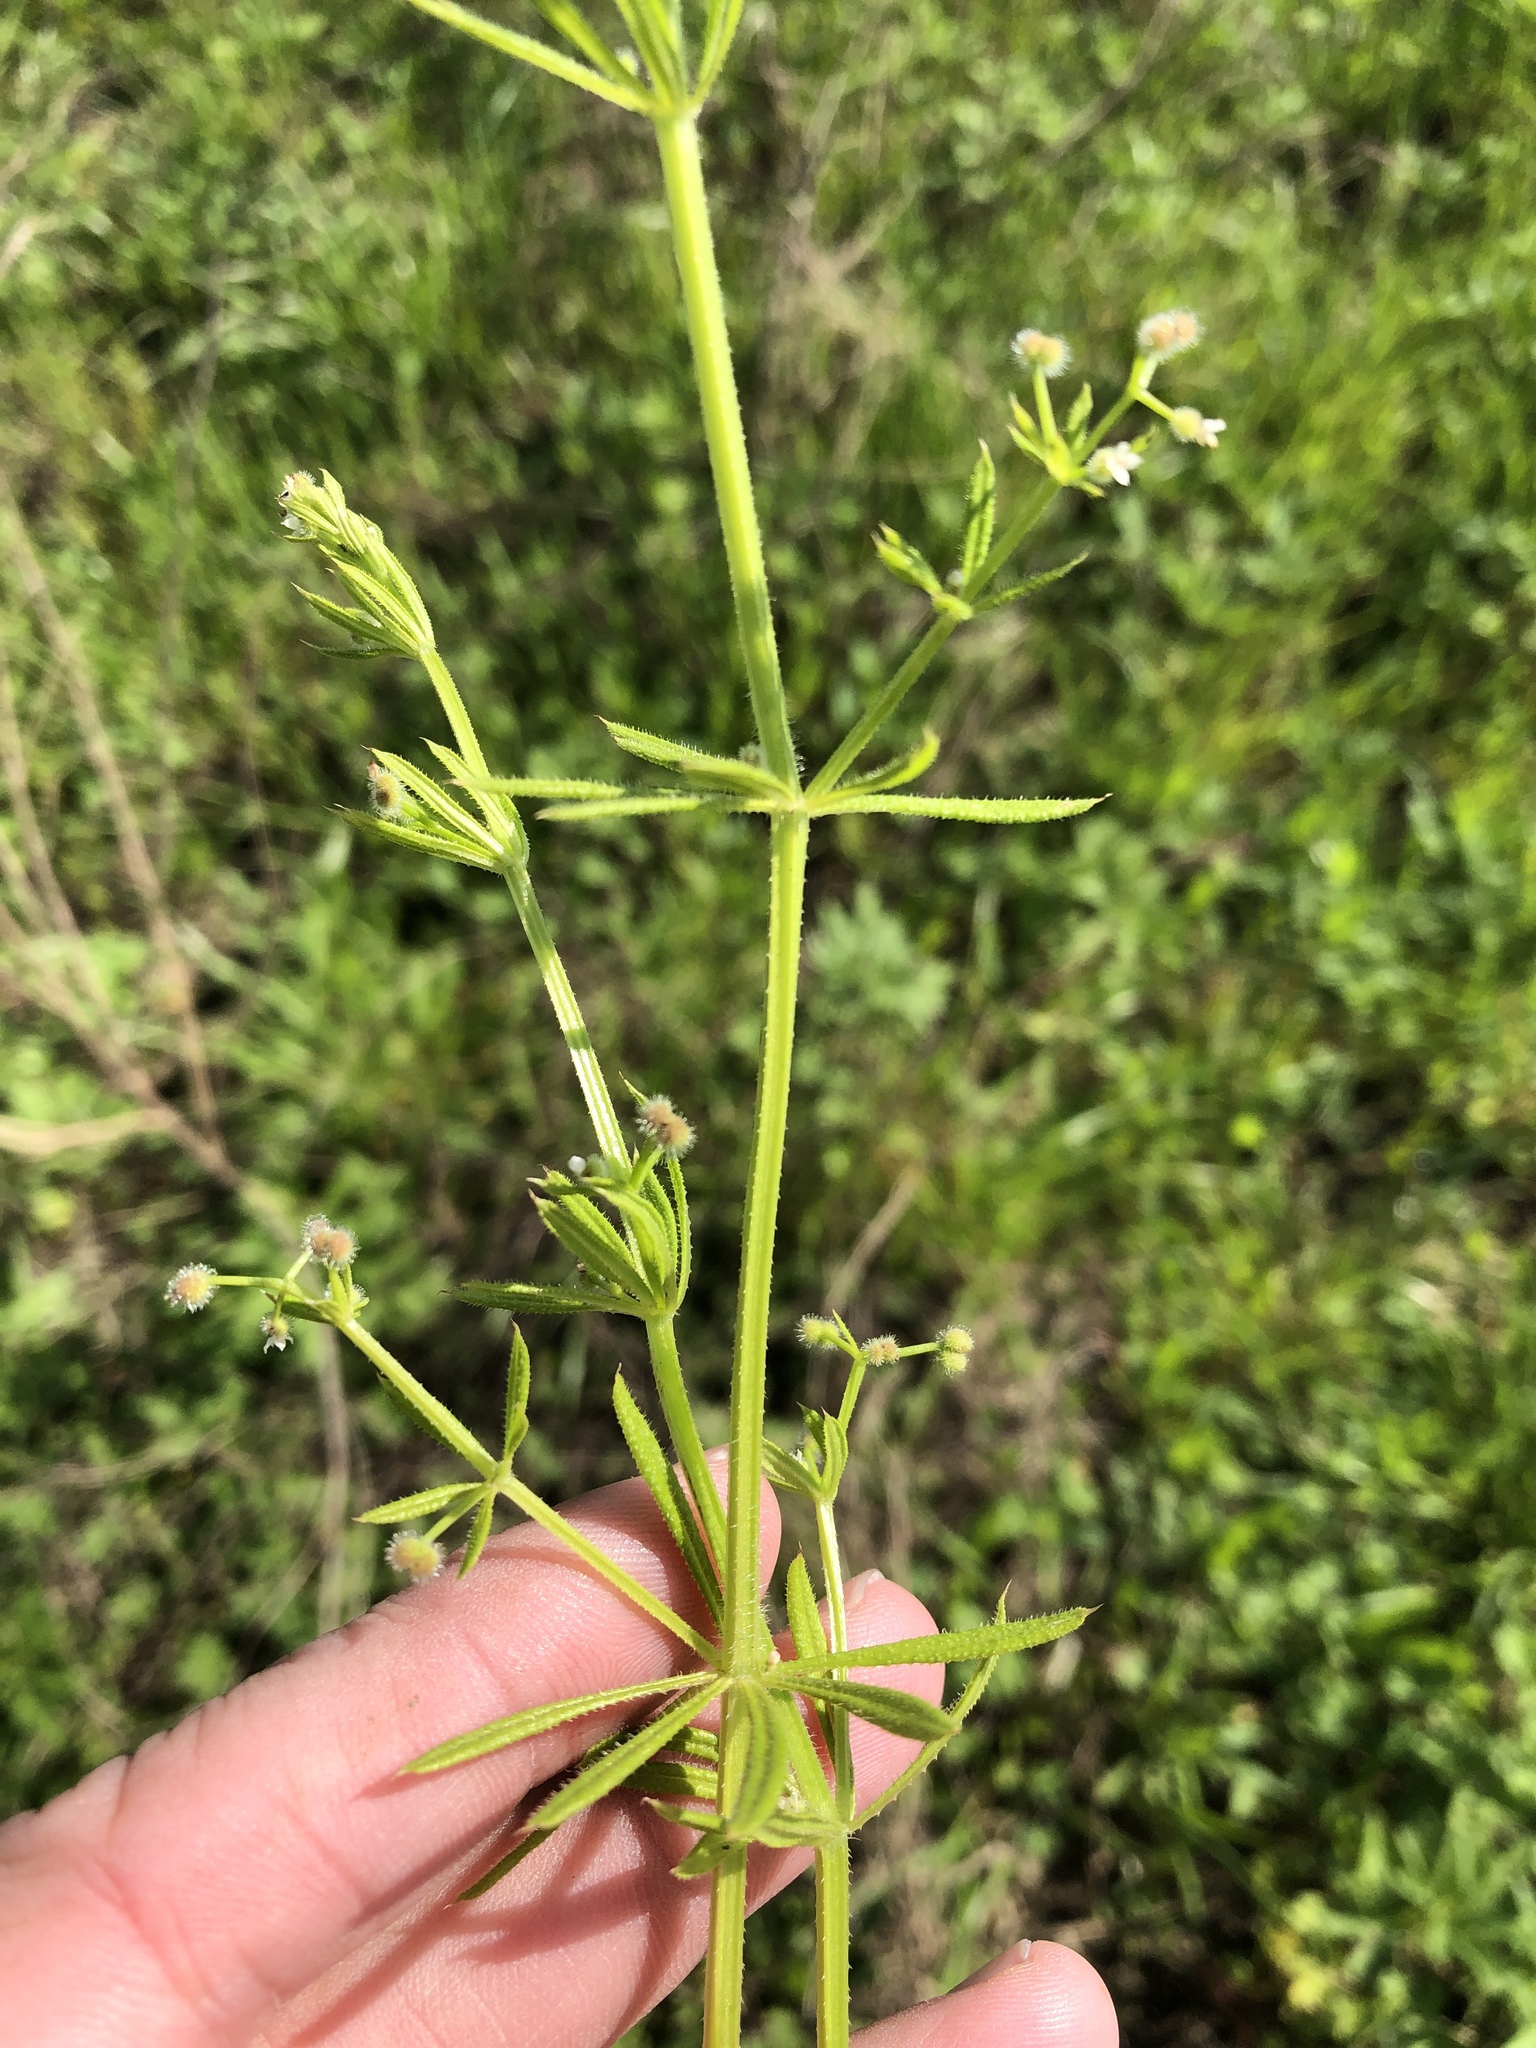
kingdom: Plantae
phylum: Tracheophyta
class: Magnoliopsida
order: Gentianales
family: Rubiaceae
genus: Galium
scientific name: Galium aparine
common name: Cleavers
